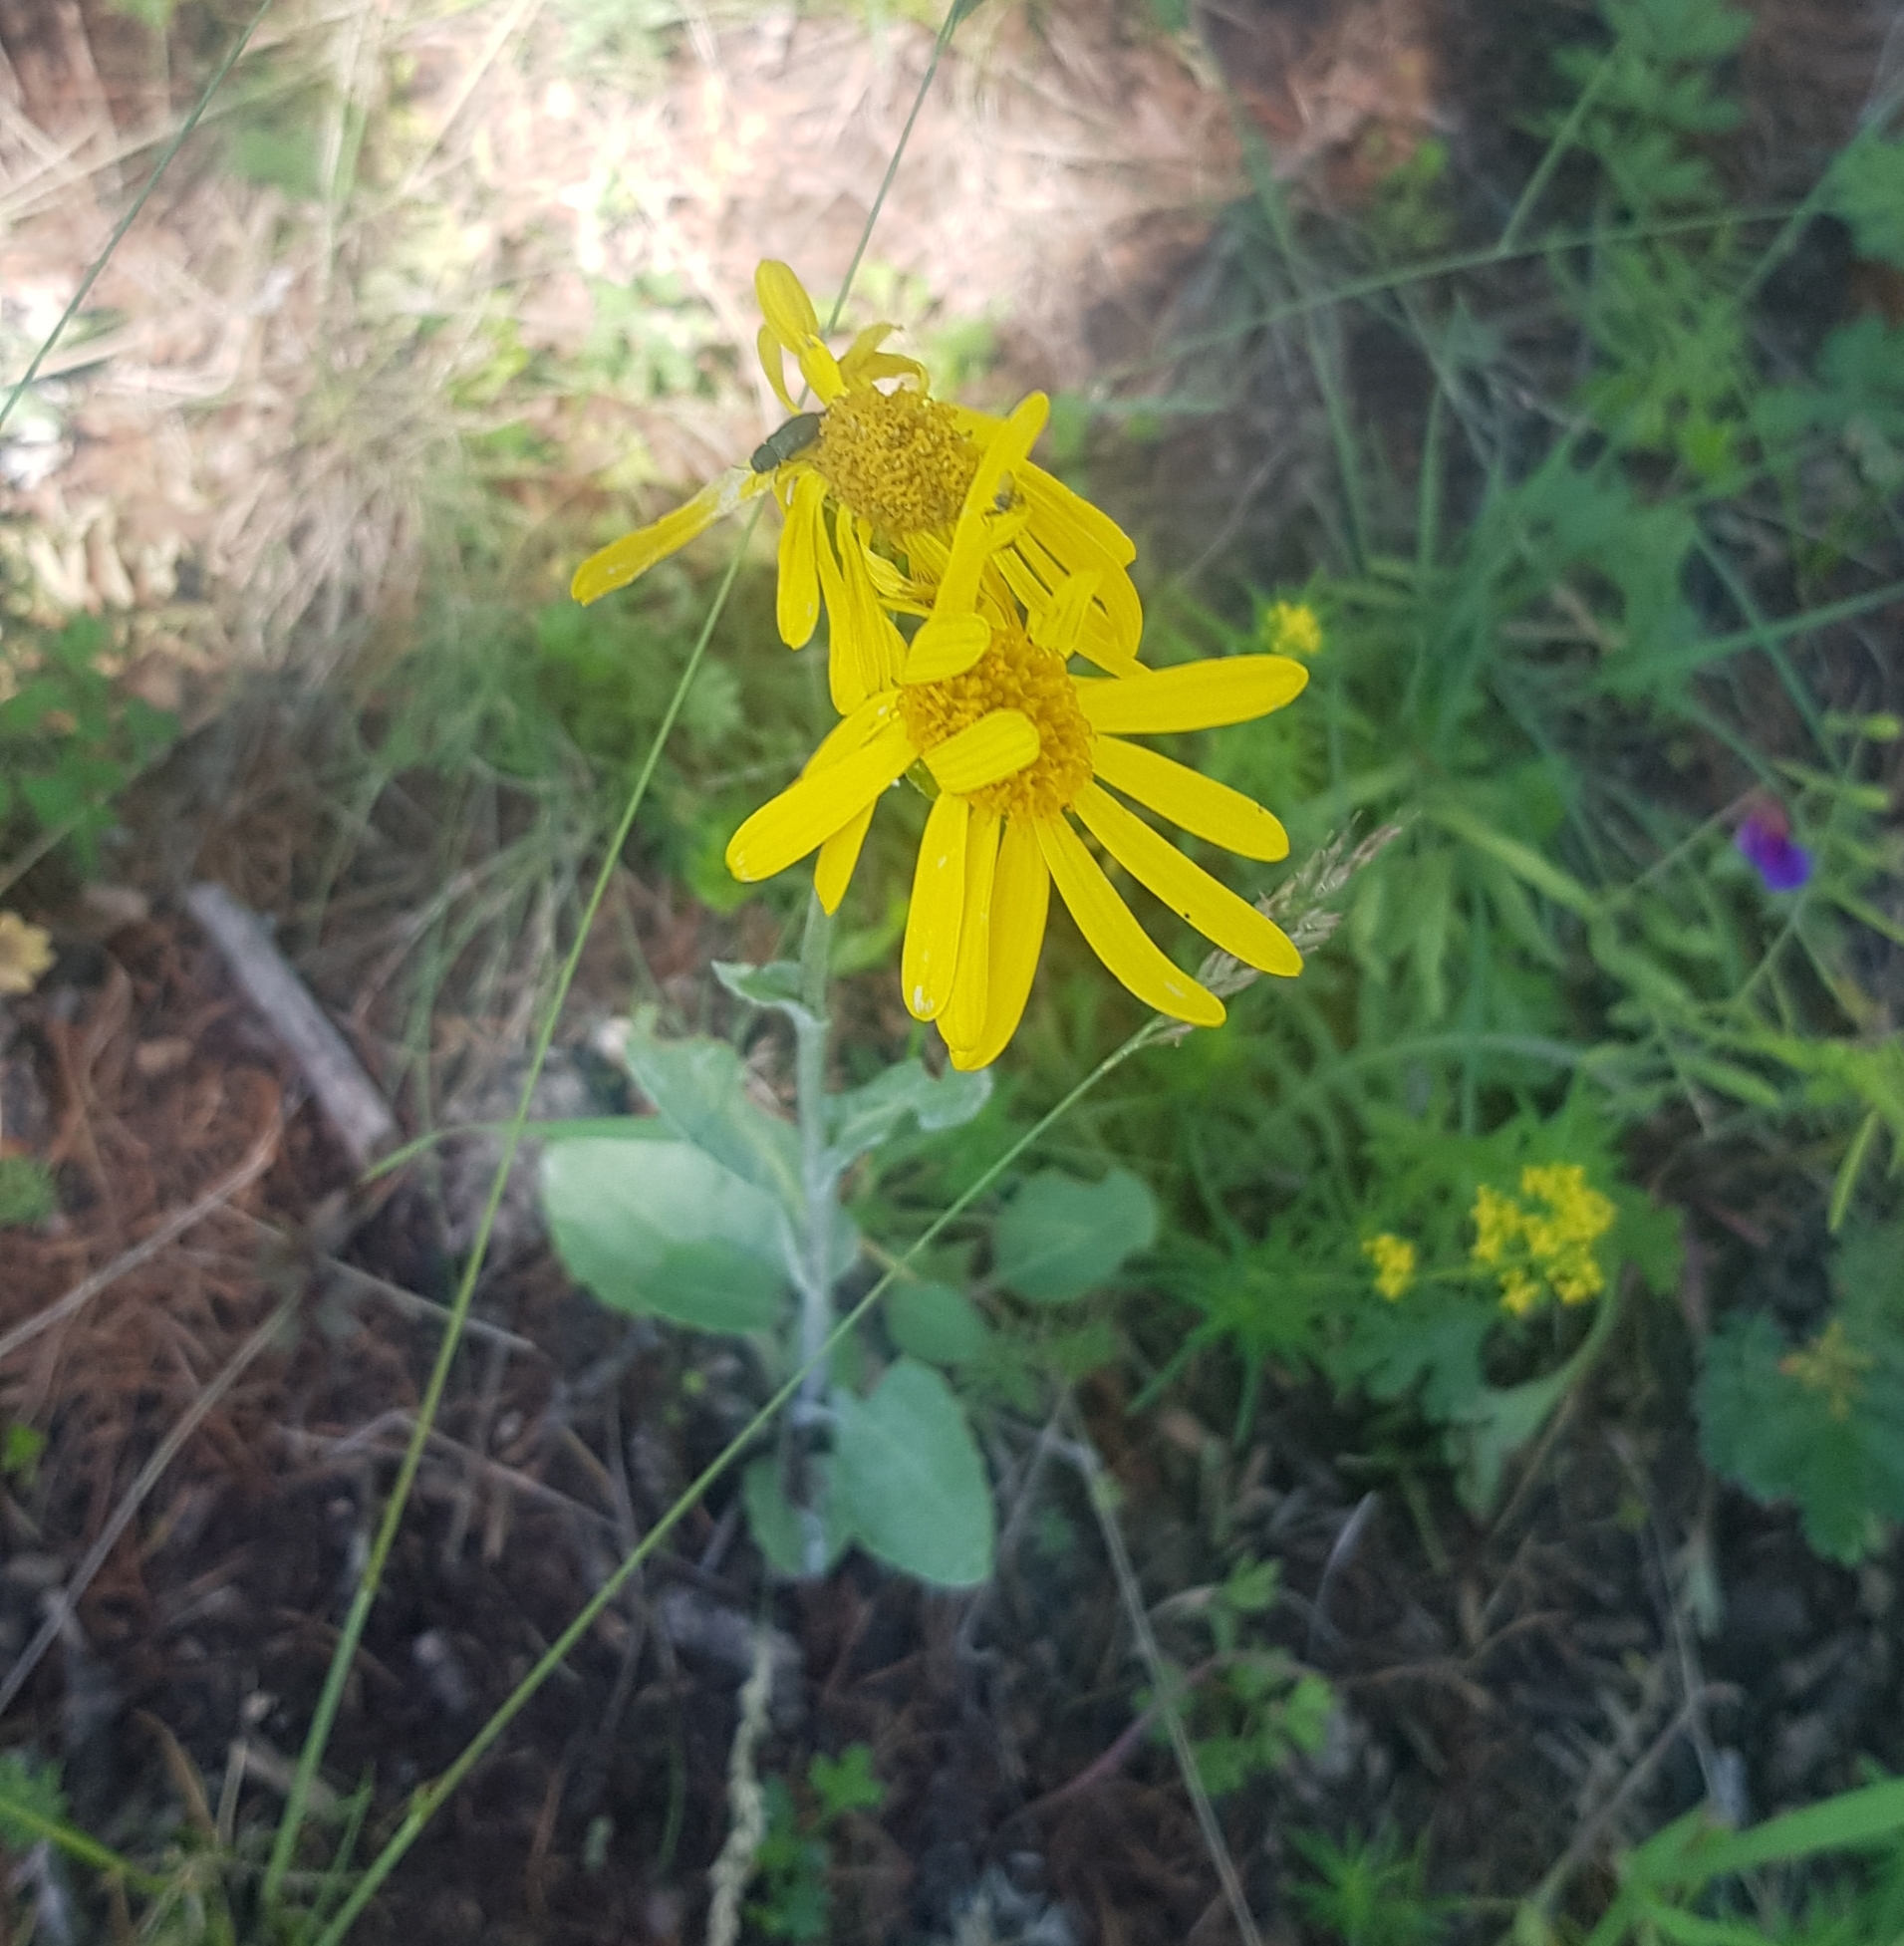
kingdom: Plantae
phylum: Tracheophyta
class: Magnoliopsida
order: Asterales
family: Asteraceae
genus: Tephroseris
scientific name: Tephroseris integrifolia
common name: Field fleawort
